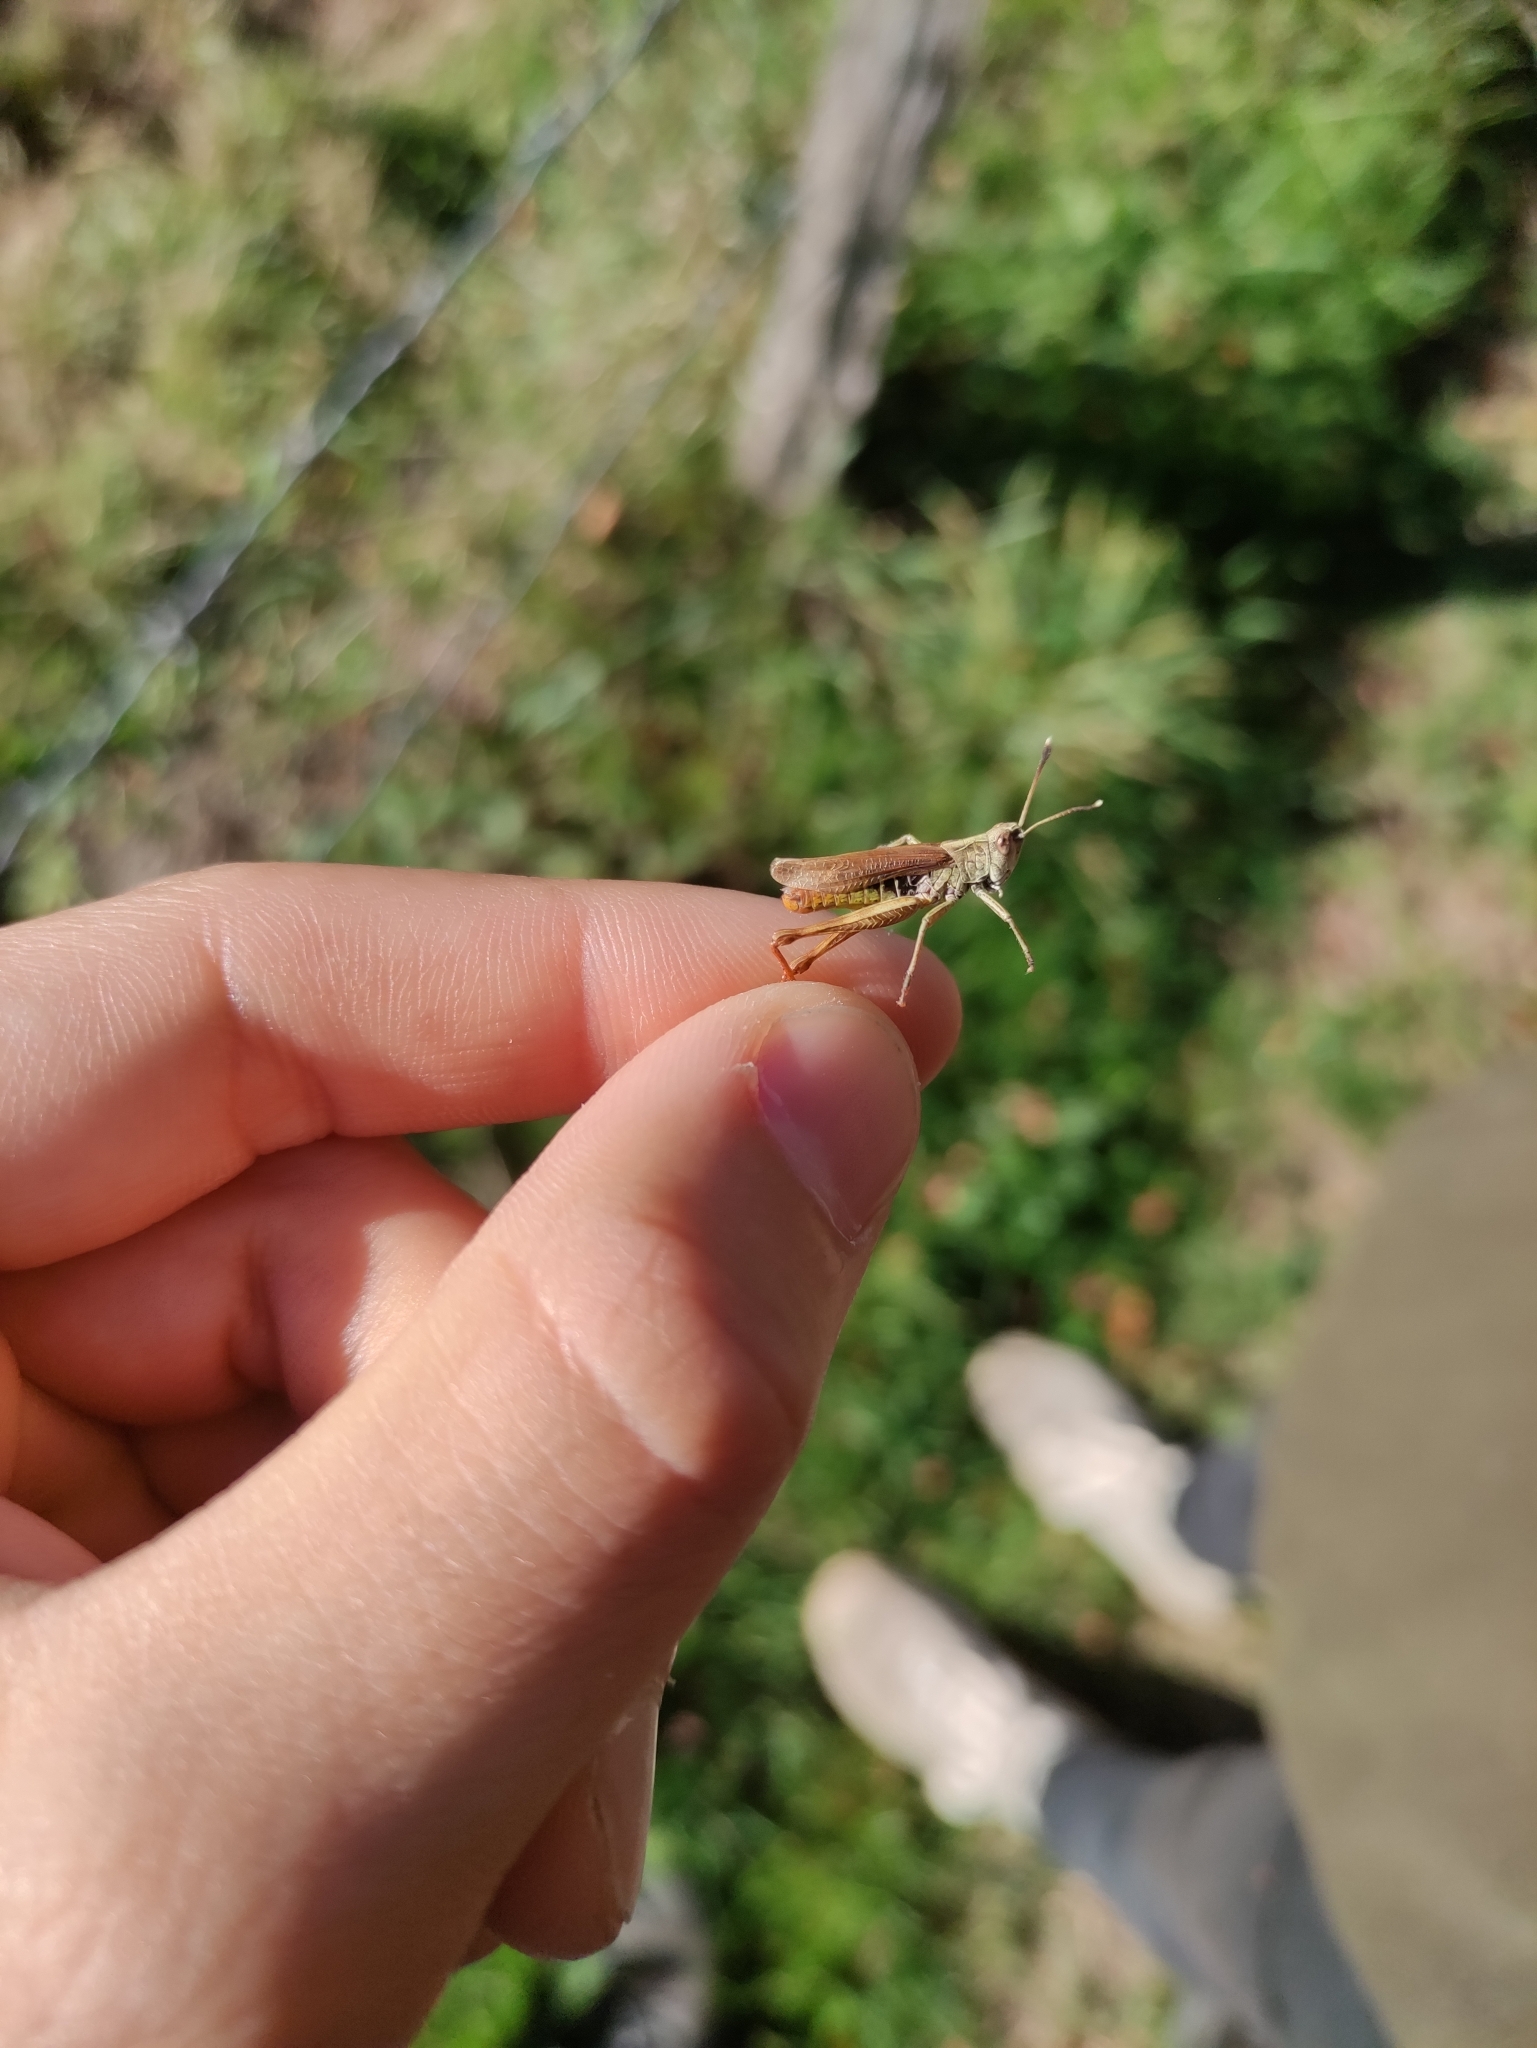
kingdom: Animalia
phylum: Arthropoda
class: Insecta
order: Orthoptera
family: Acrididae
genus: Gomphocerippus
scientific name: Gomphocerippus rufus
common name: Rufous grasshopper
